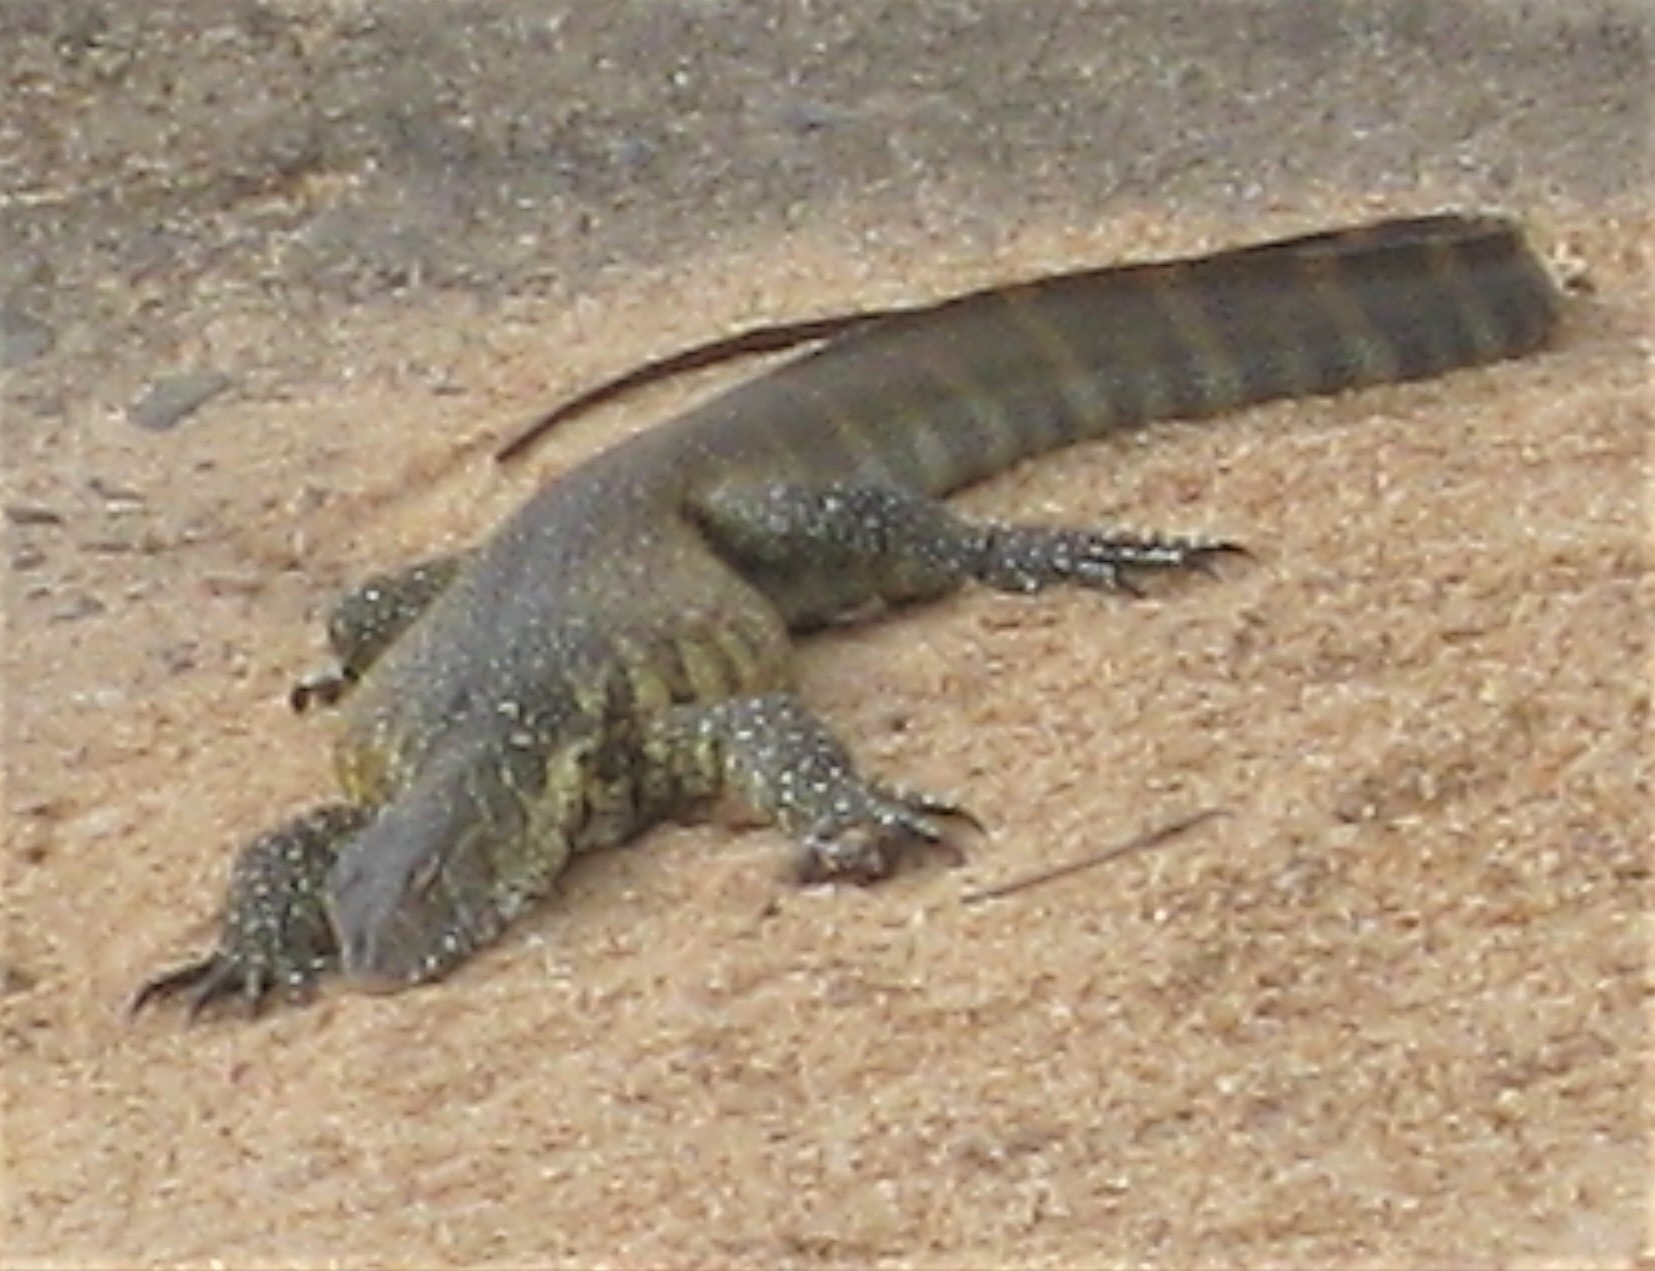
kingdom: Animalia
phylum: Chordata
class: Squamata
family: Varanidae
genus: Varanus
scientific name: Varanus niloticus
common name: Nile monitor
